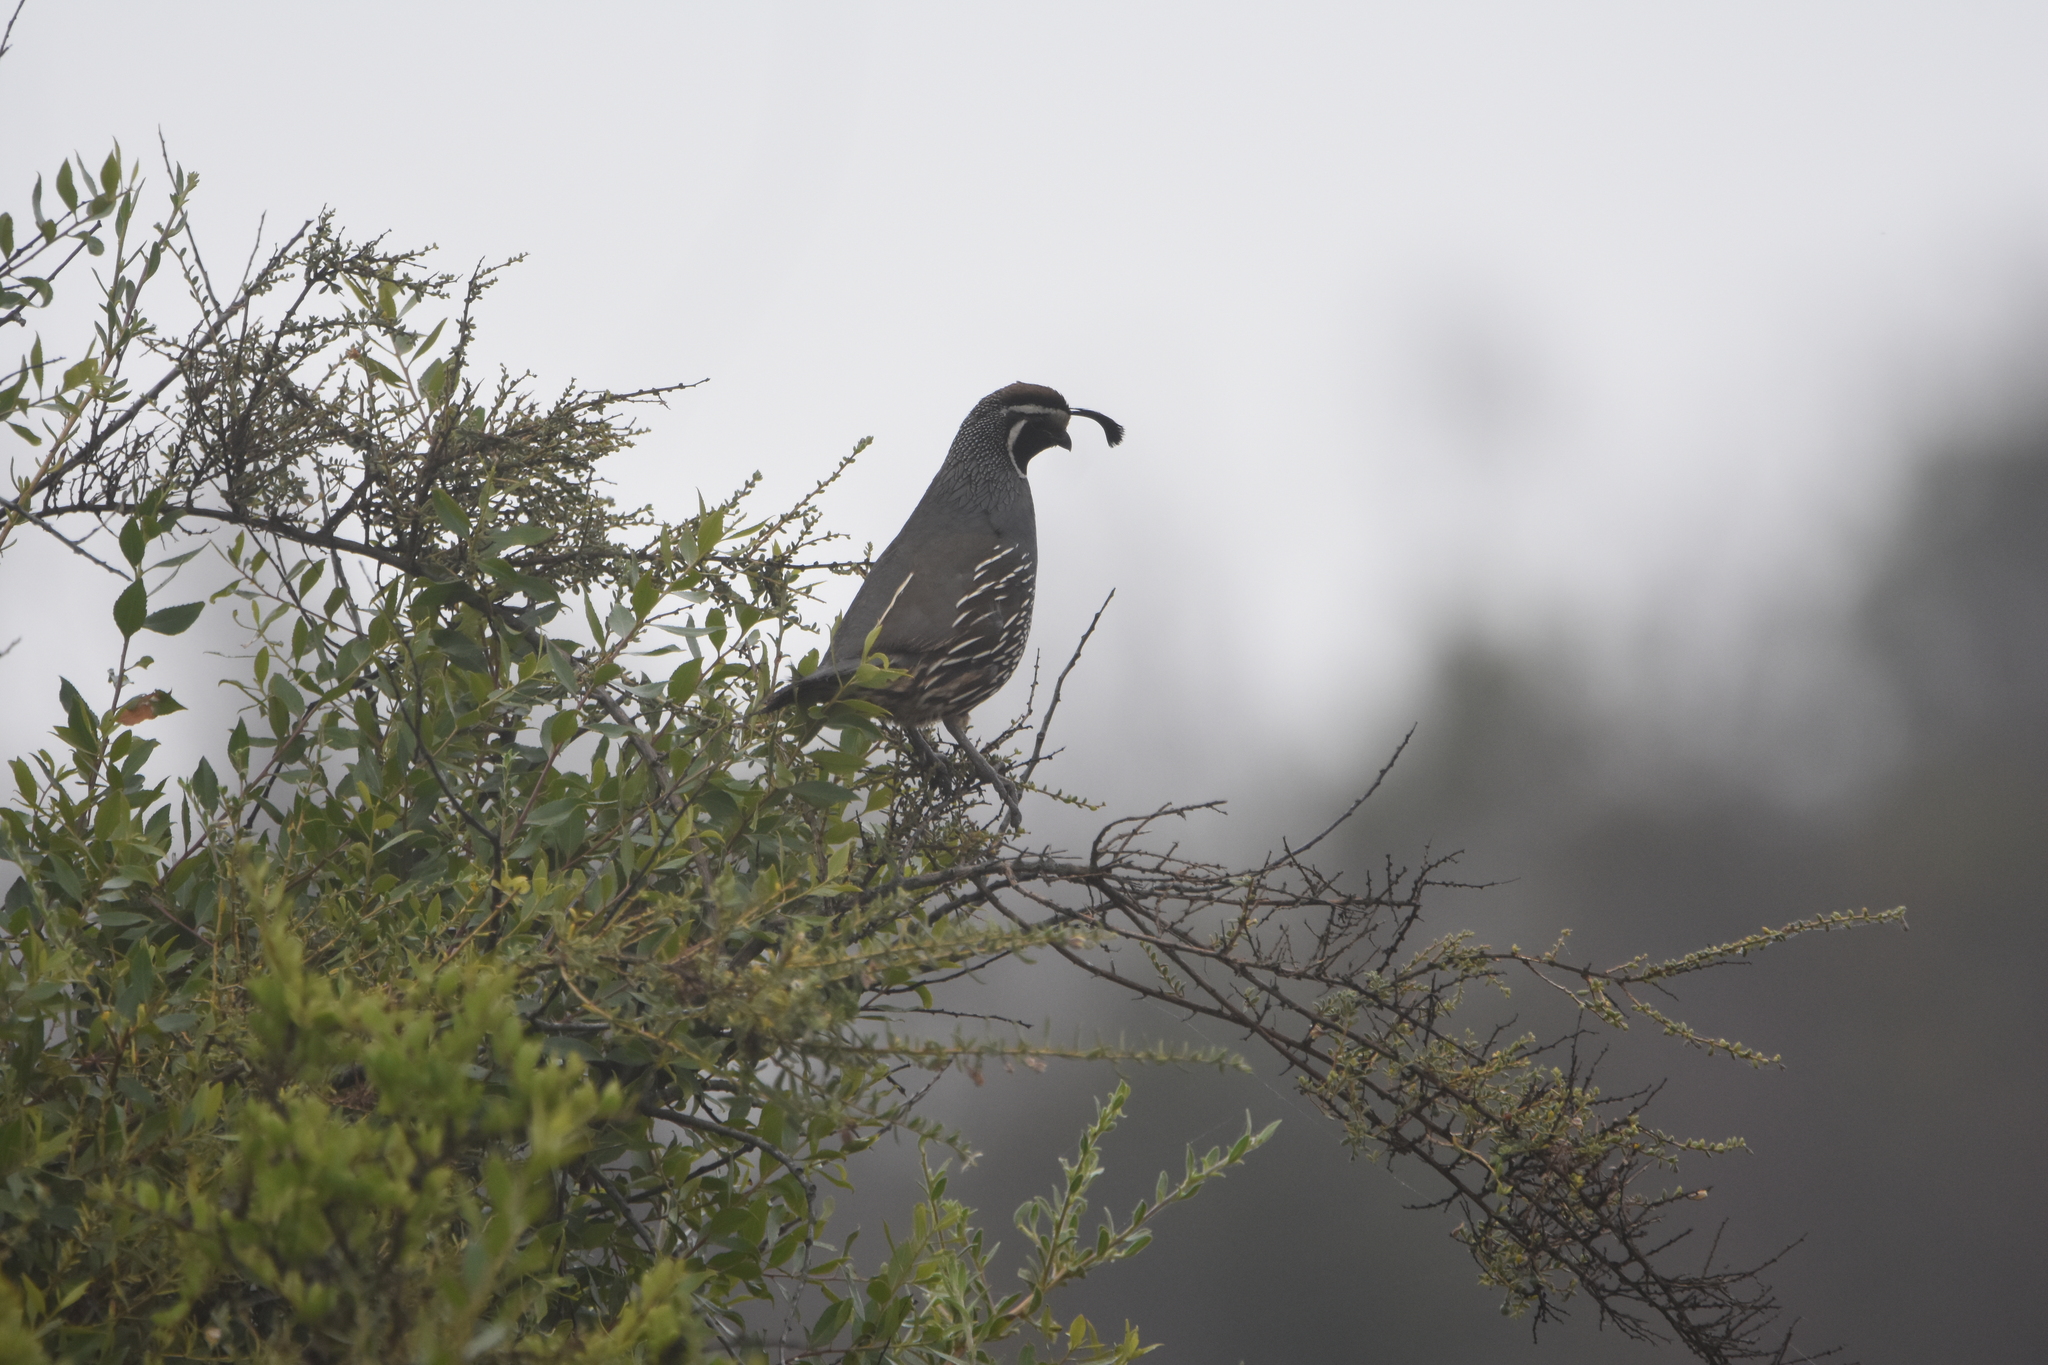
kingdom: Animalia
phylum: Chordata
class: Aves
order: Galliformes
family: Odontophoridae
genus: Callipepla
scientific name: Callipepla californica
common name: California quail
